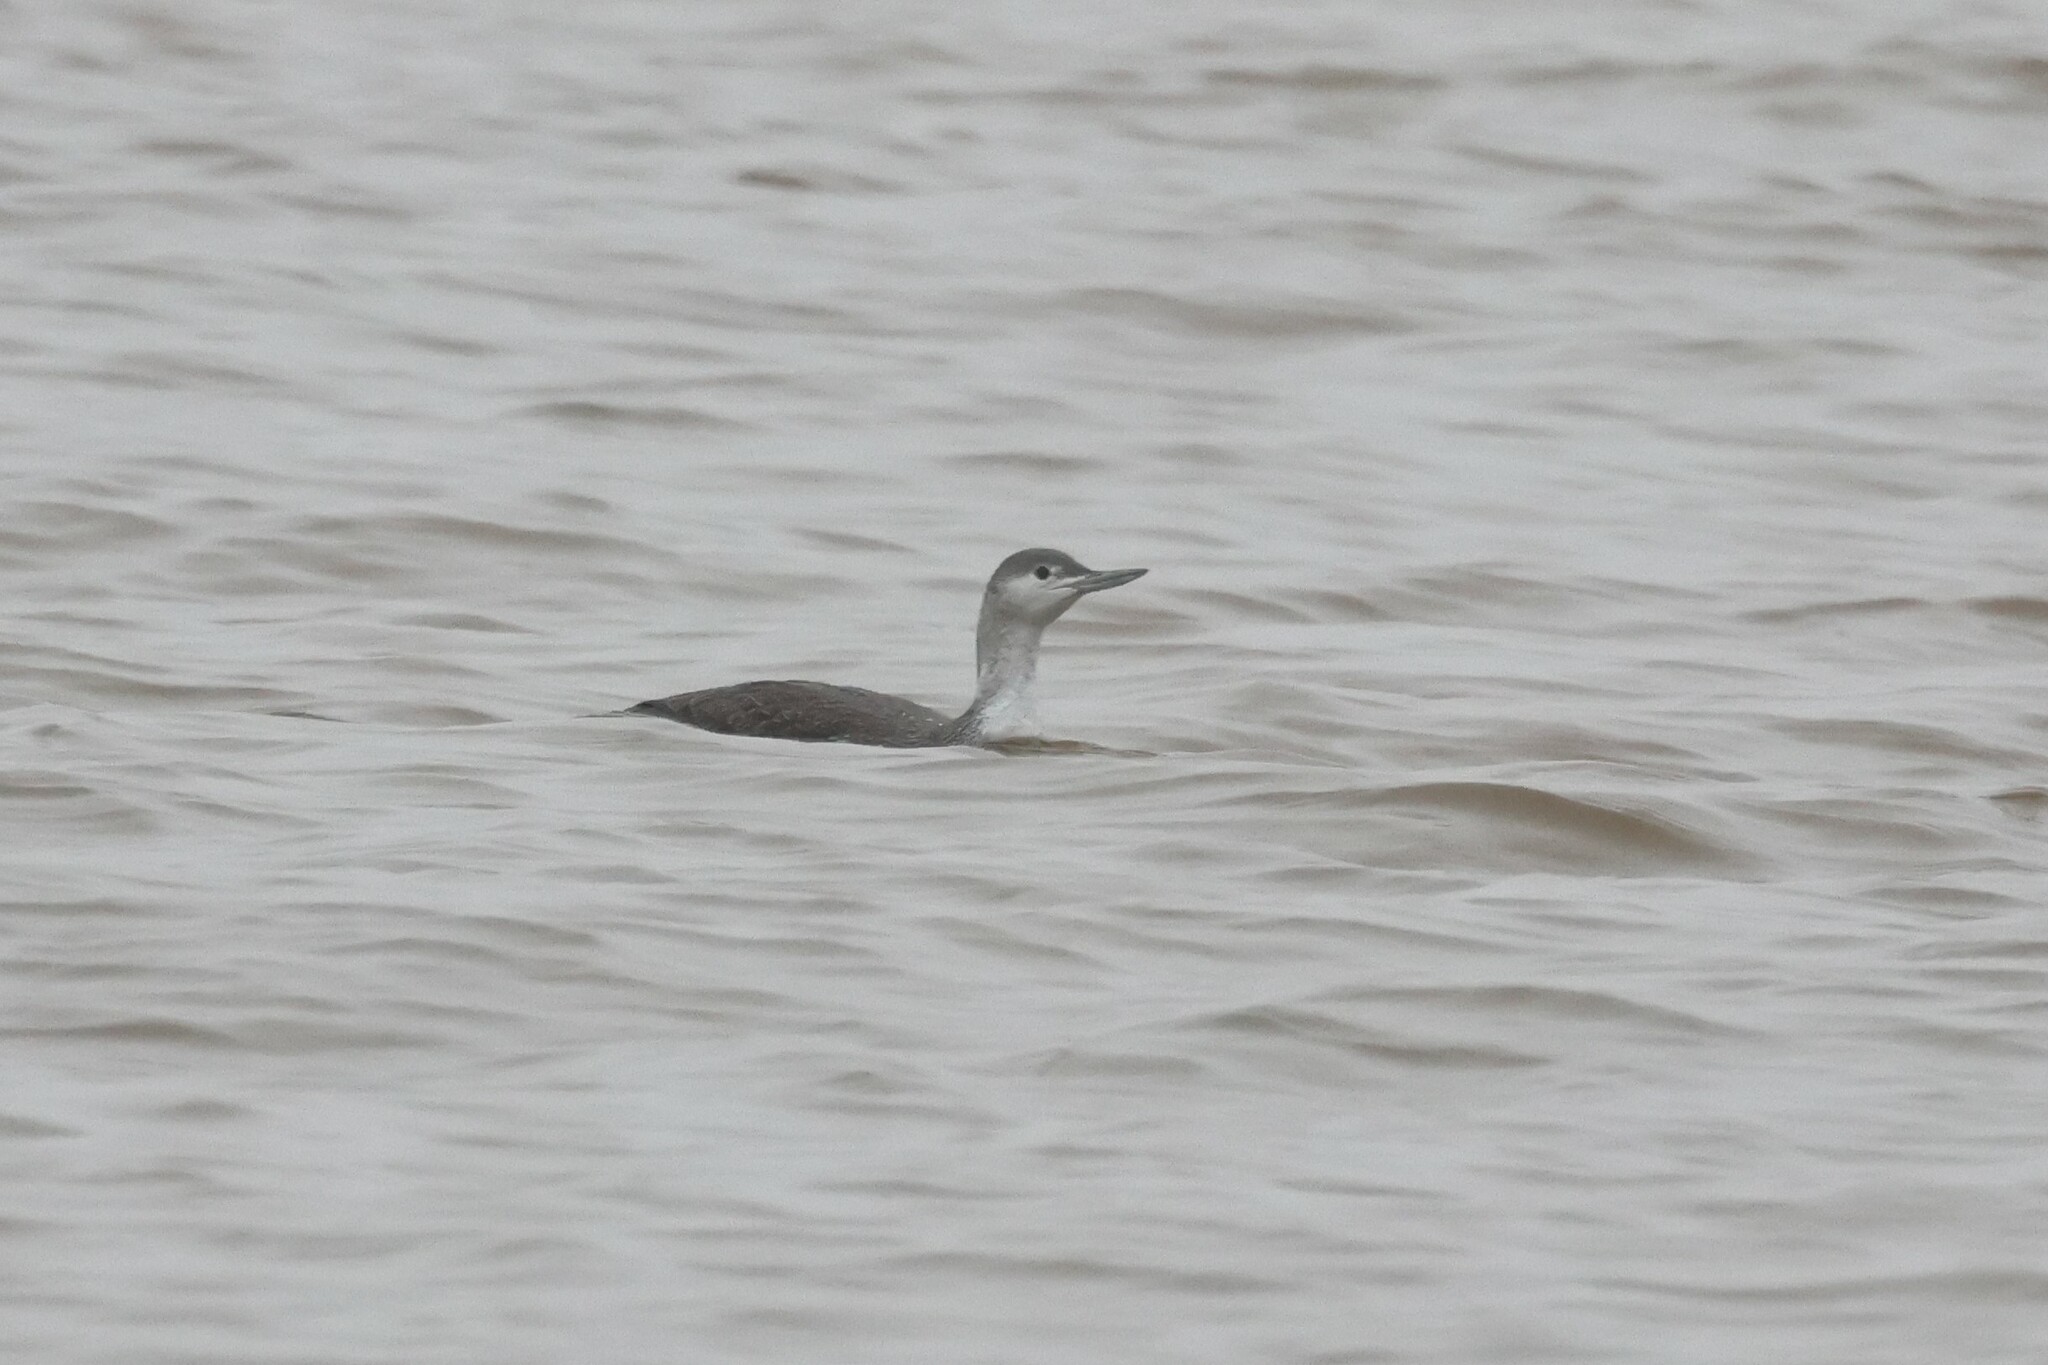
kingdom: Animalia
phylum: Chordata
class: Aves
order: Gaviiformes
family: Gaviidae
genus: Gavia
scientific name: Gavia stellata
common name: Red-throated loon
